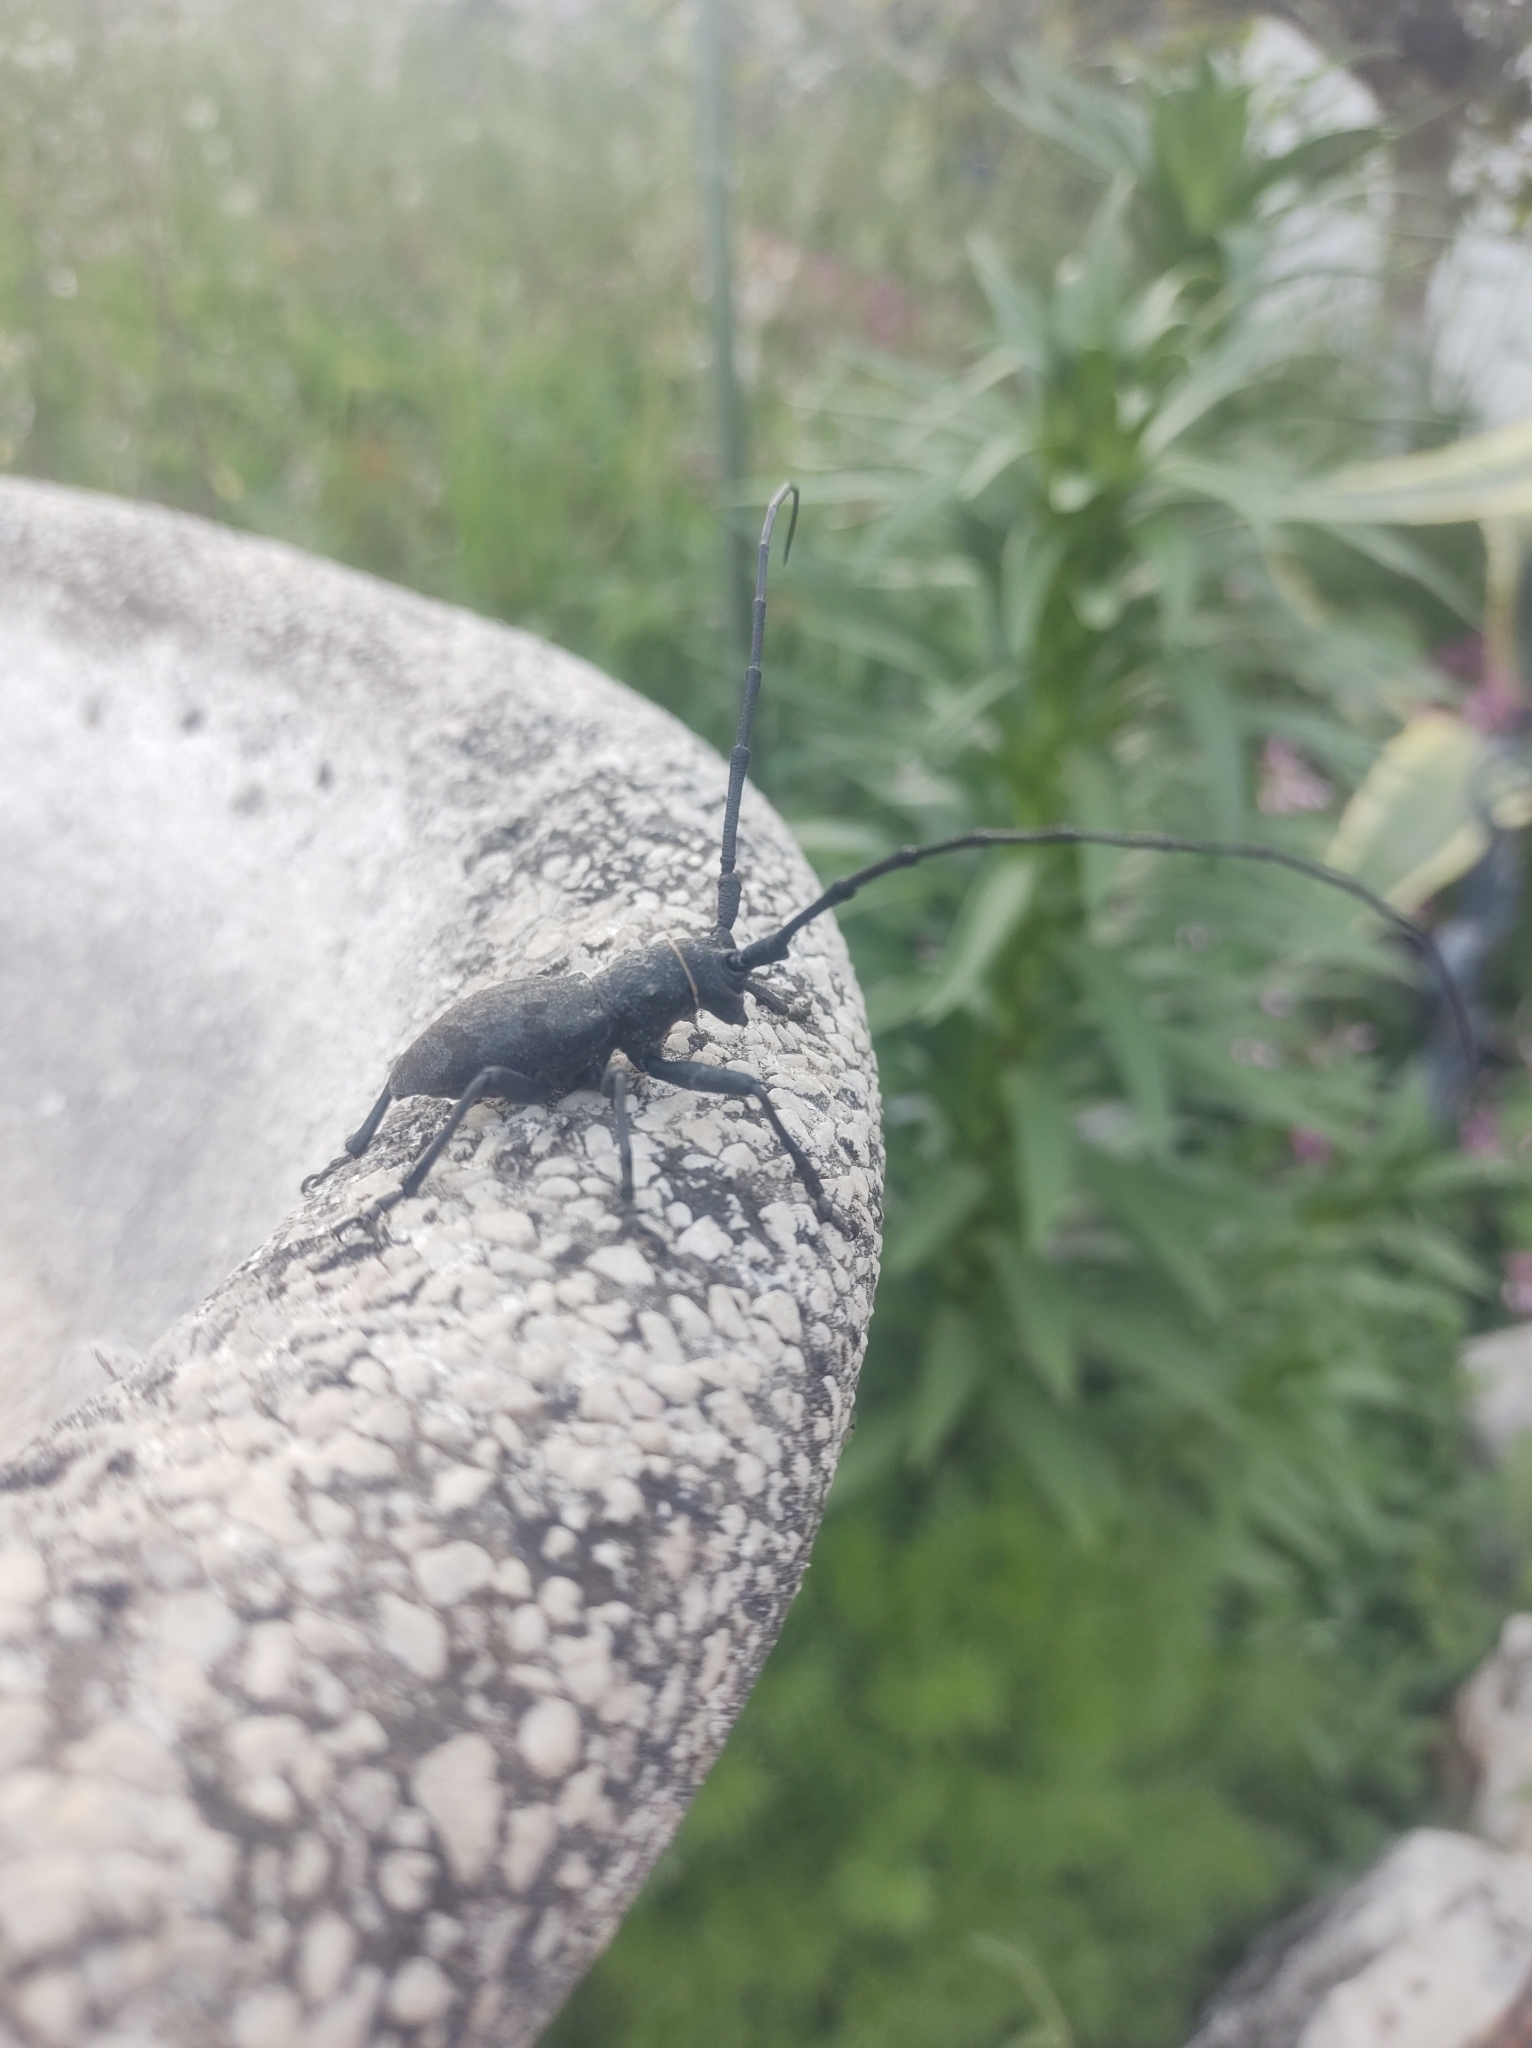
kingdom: Animalia
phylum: Arthropoda
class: Insecta
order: Coleoptera
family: Cerambycidae
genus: Morimus
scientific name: Morimus asper
